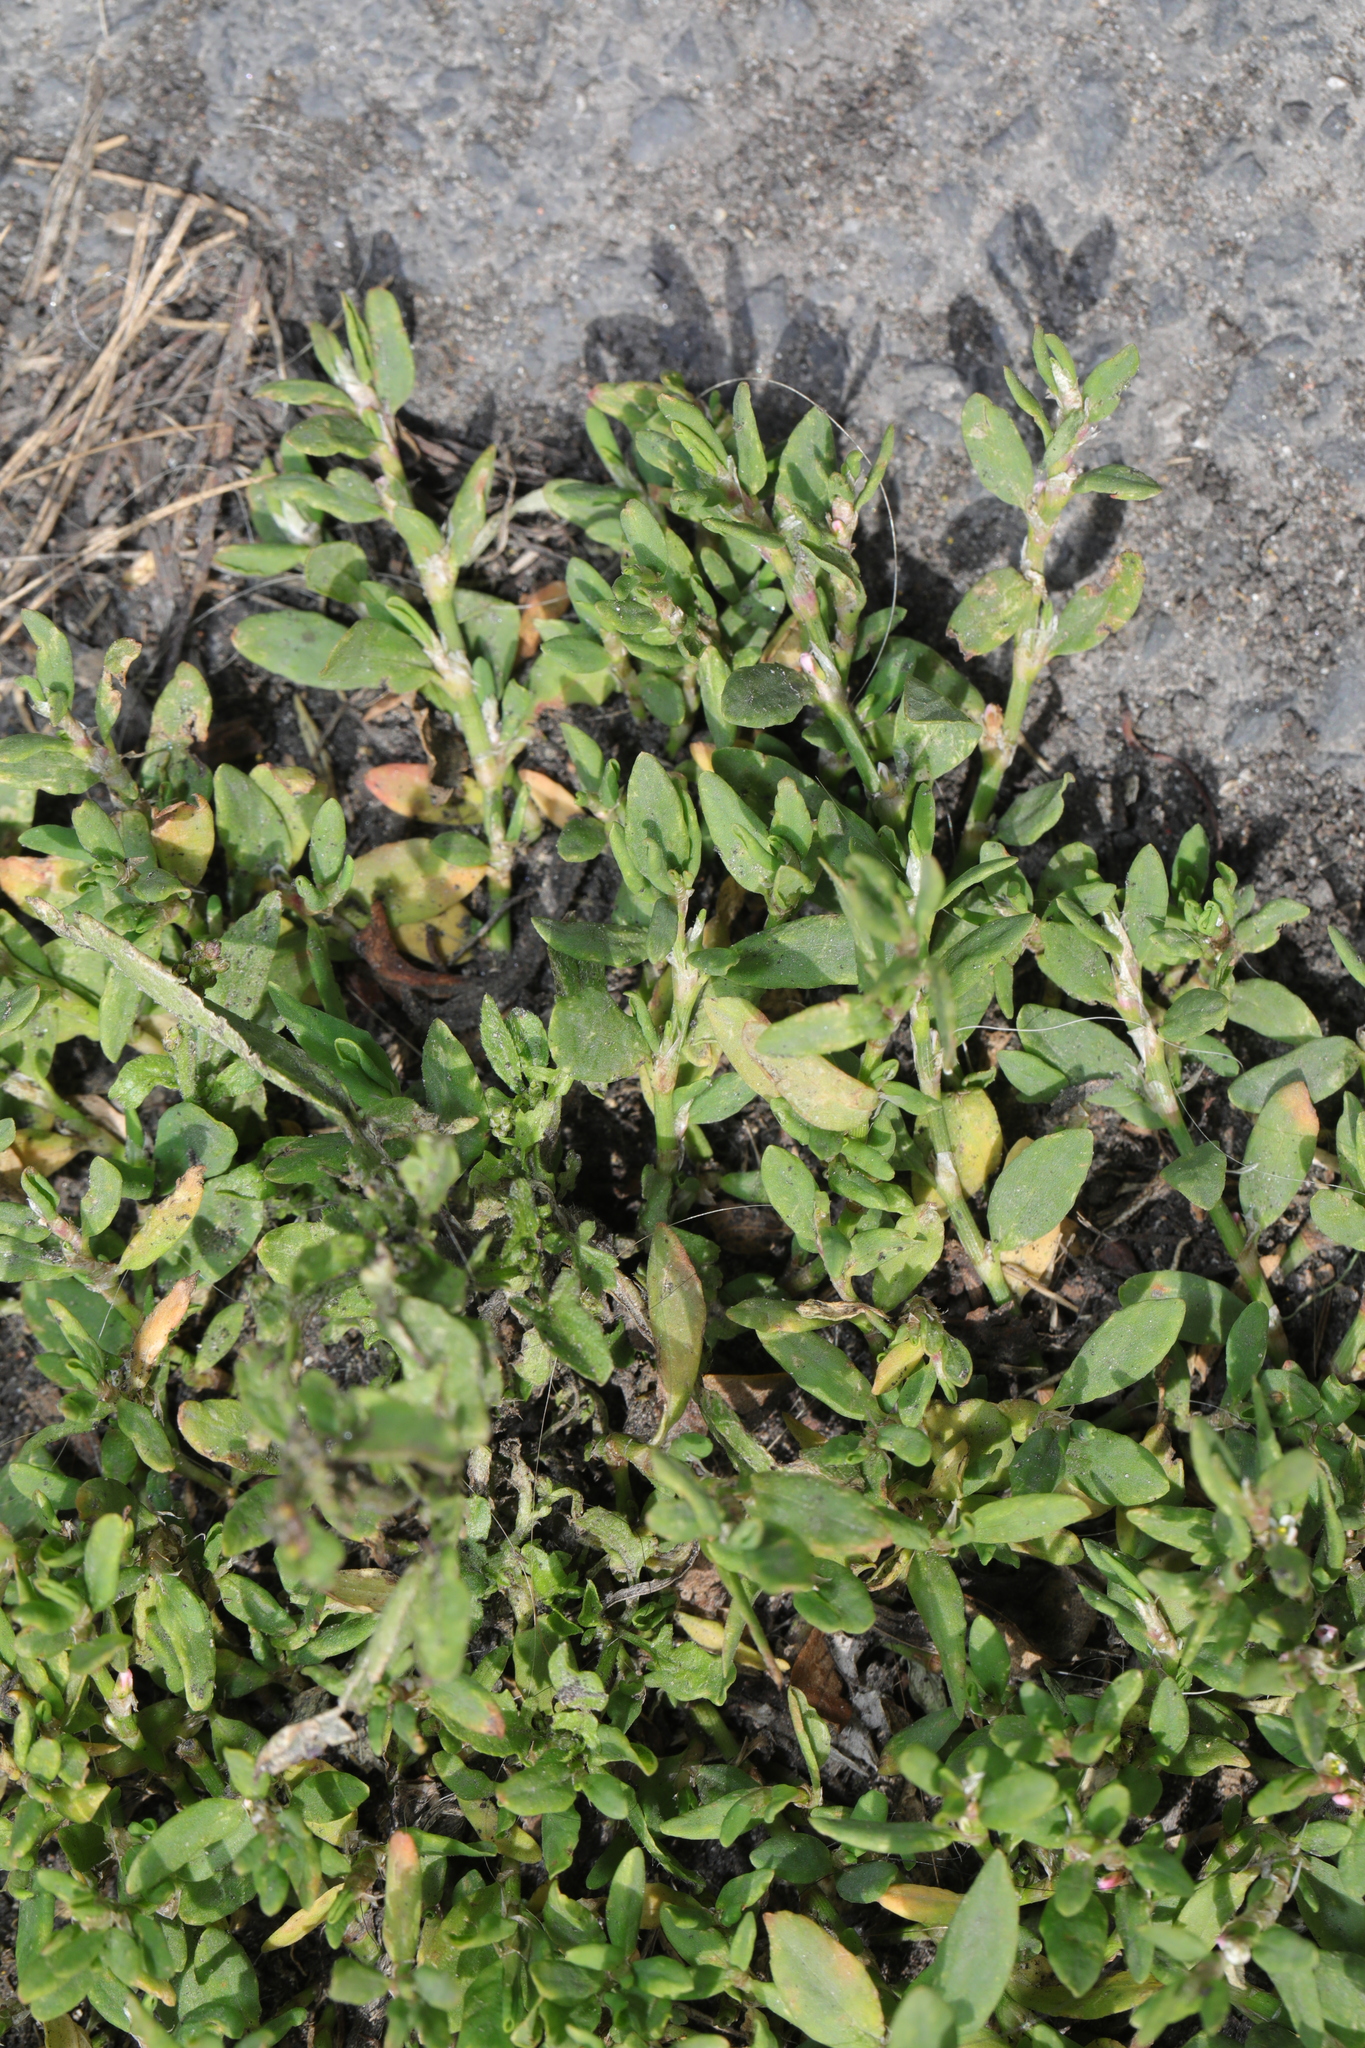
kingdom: Plantae
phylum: Tracheophyta
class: Magnoliopsida
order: Caryophyllales
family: Polygonaceae
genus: Polygonum
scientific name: Polygonum aviculare
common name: Prostrate knotweed
